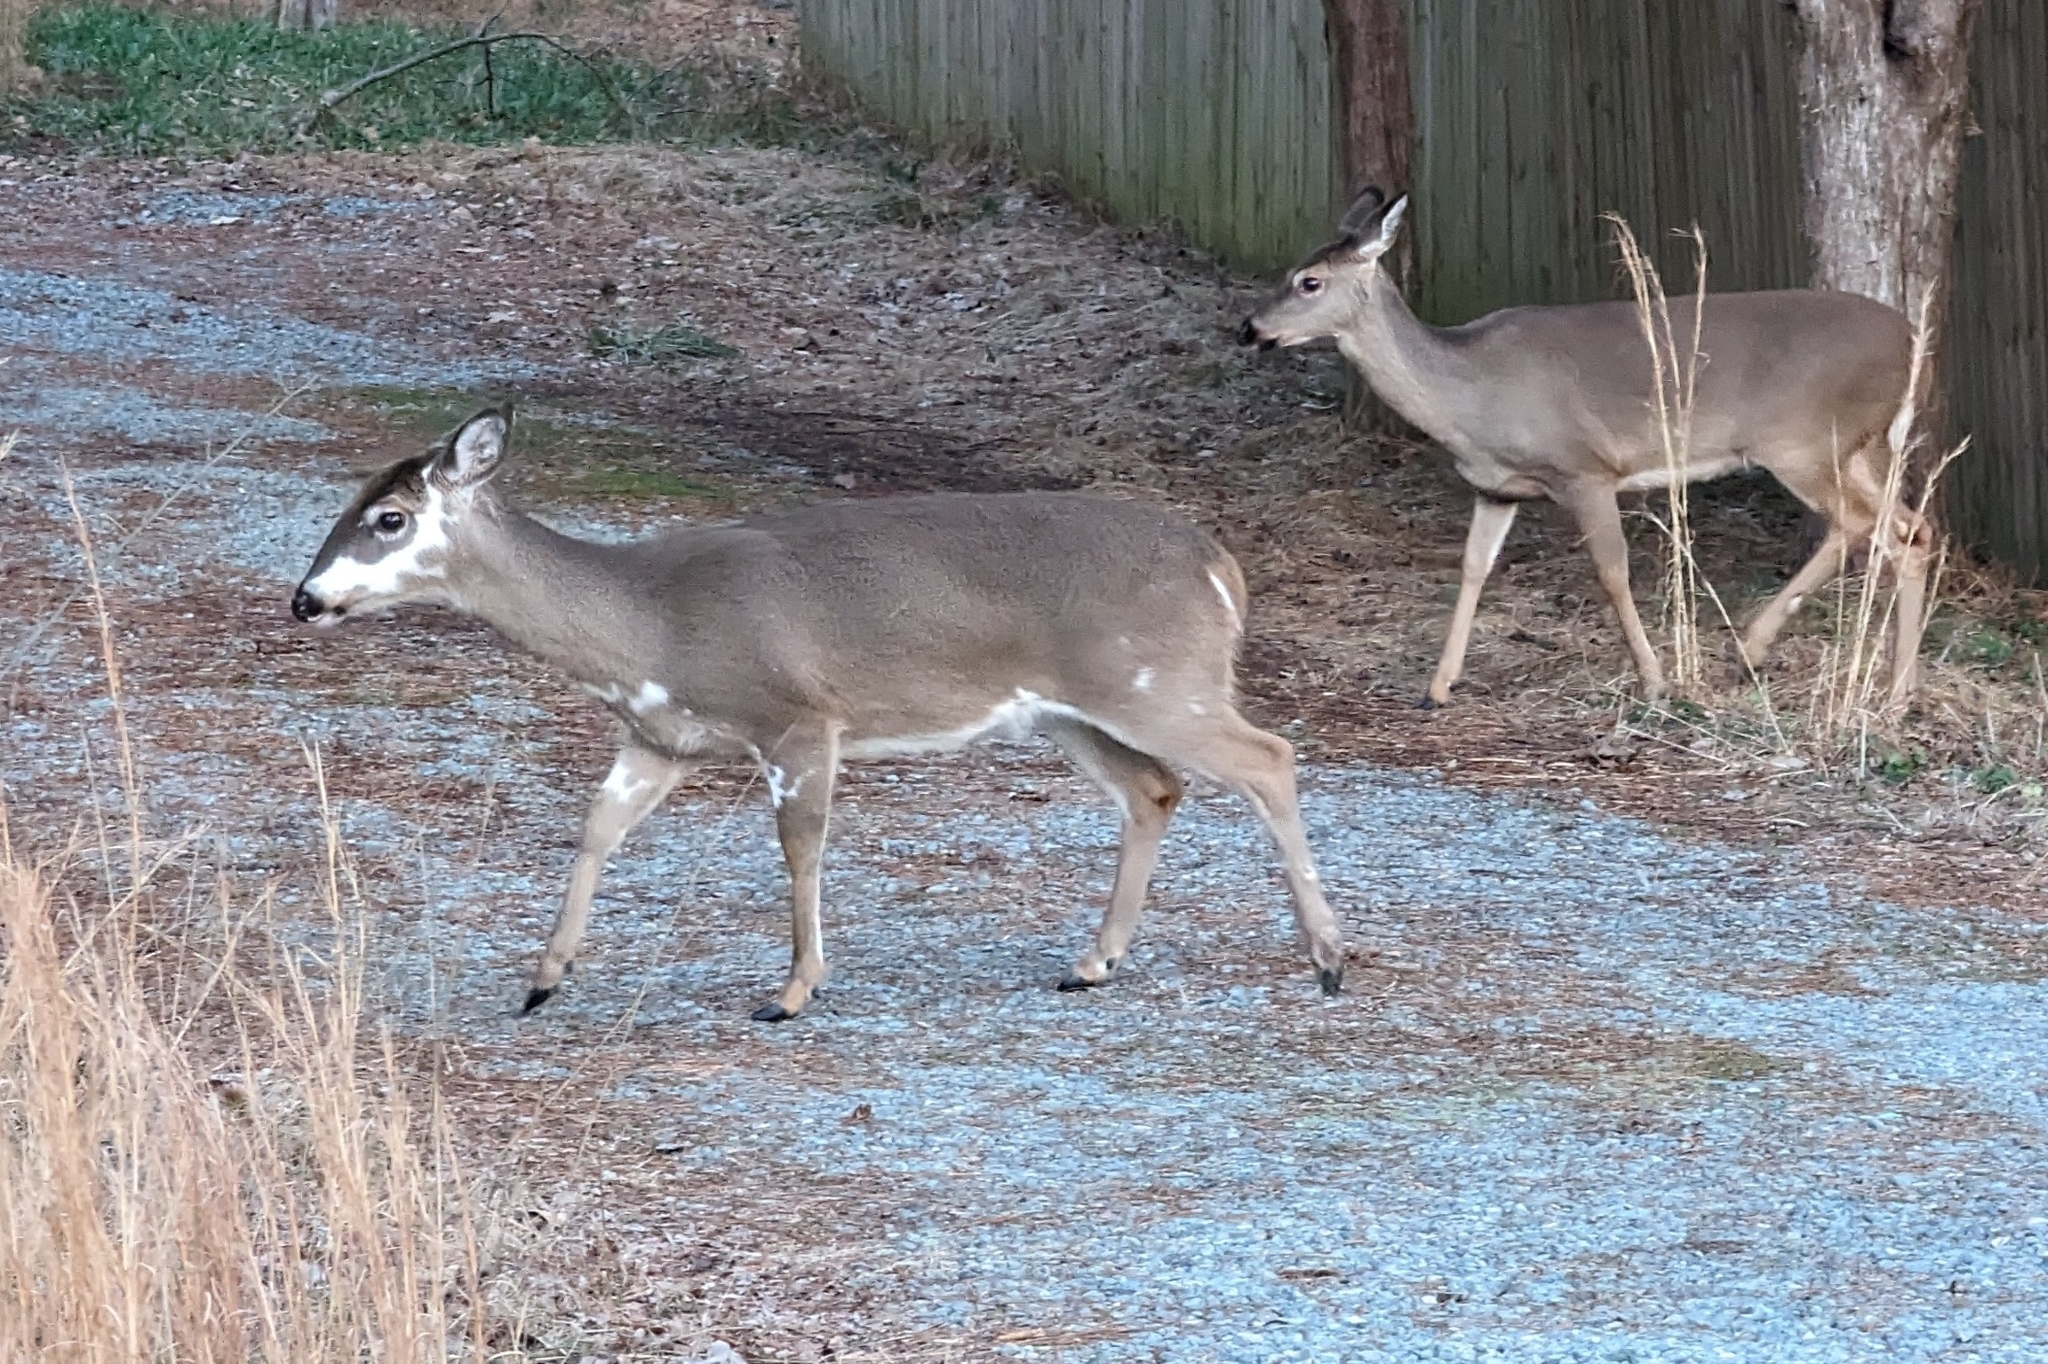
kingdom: Animalia
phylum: Chordata
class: Mammalia
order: Artiodactyla
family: Cervidae
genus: Odocoileus
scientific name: Odocoileus virginianus
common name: White-tailed deer
